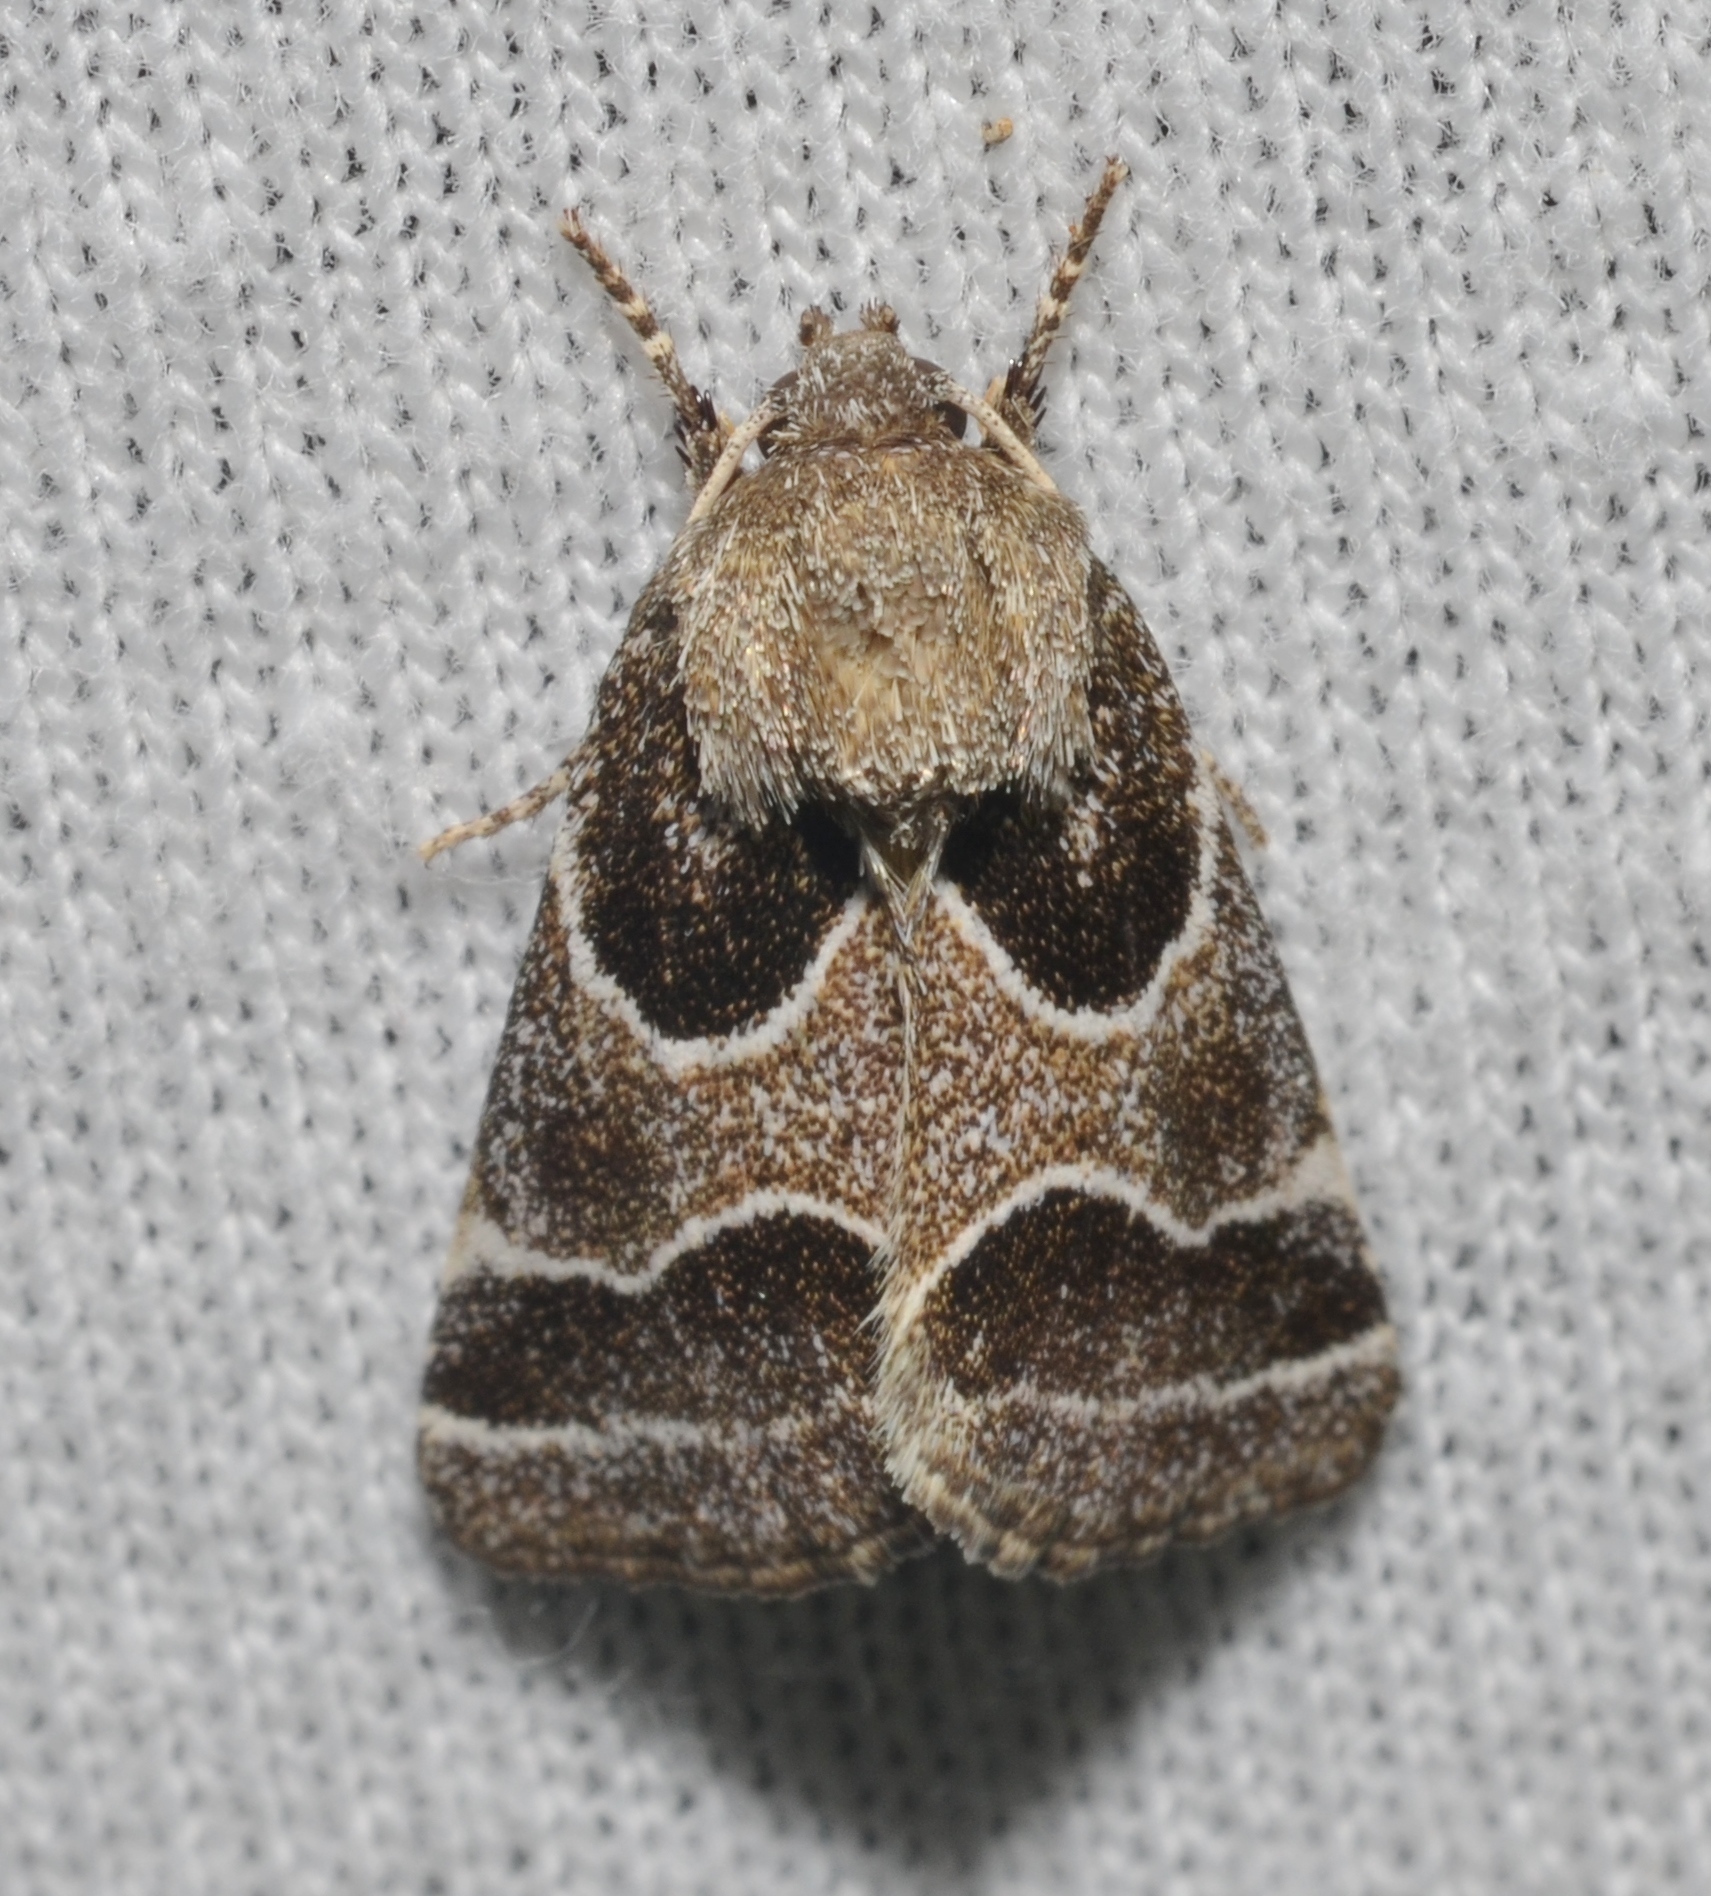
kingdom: Animalia
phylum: Arthropoda
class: Insecta
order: Lepidoptera
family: Noctuidae
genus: Schinia
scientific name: Schinia rivulosa
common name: Scarce meal-moth
